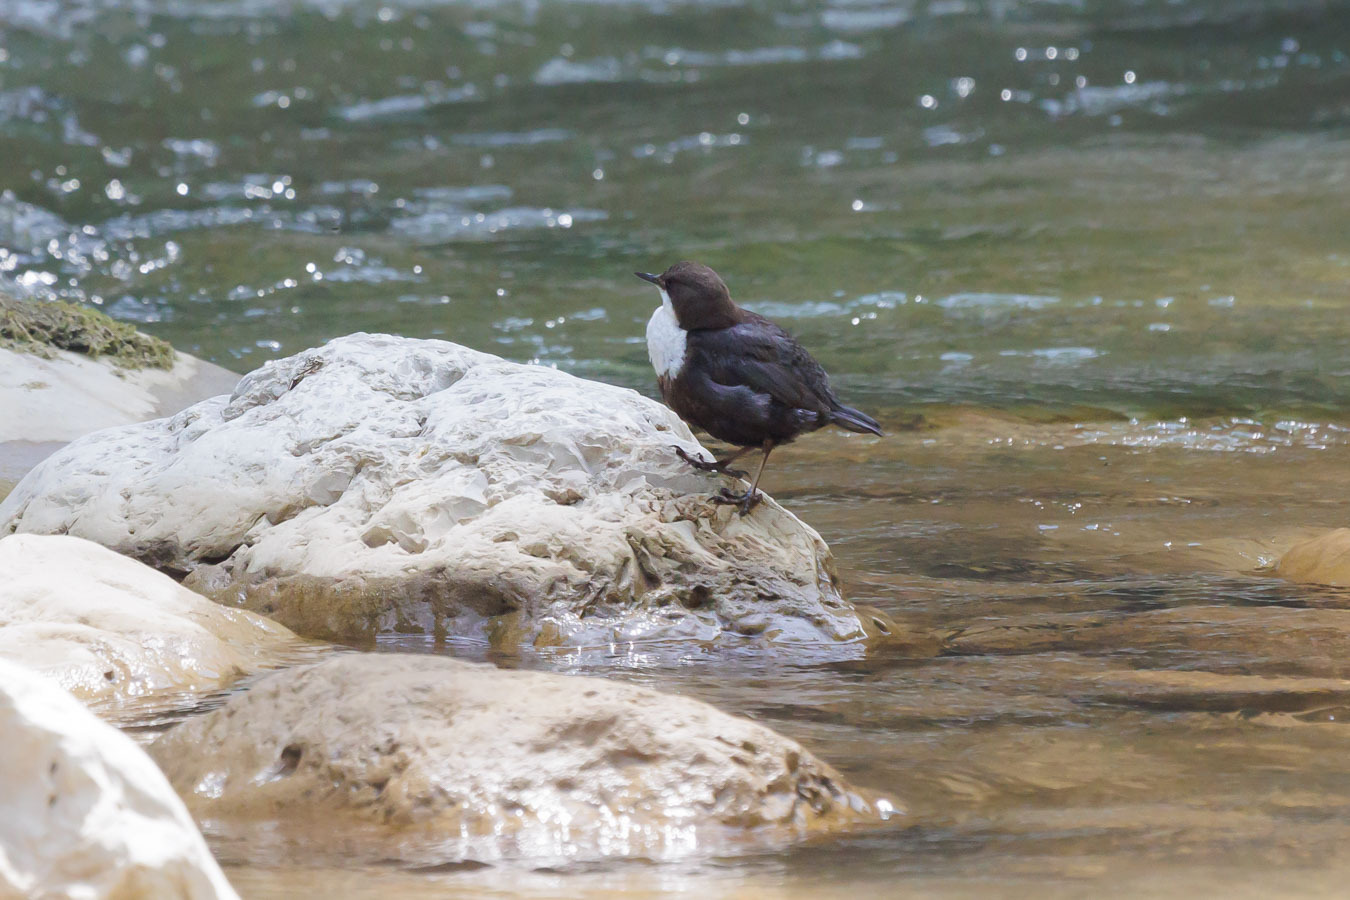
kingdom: Animalia
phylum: Chordata
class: Aves
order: Passeriformes
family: Cinclidae
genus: Cinclus
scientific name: Cinclus cinclus
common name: White-throated dipper
